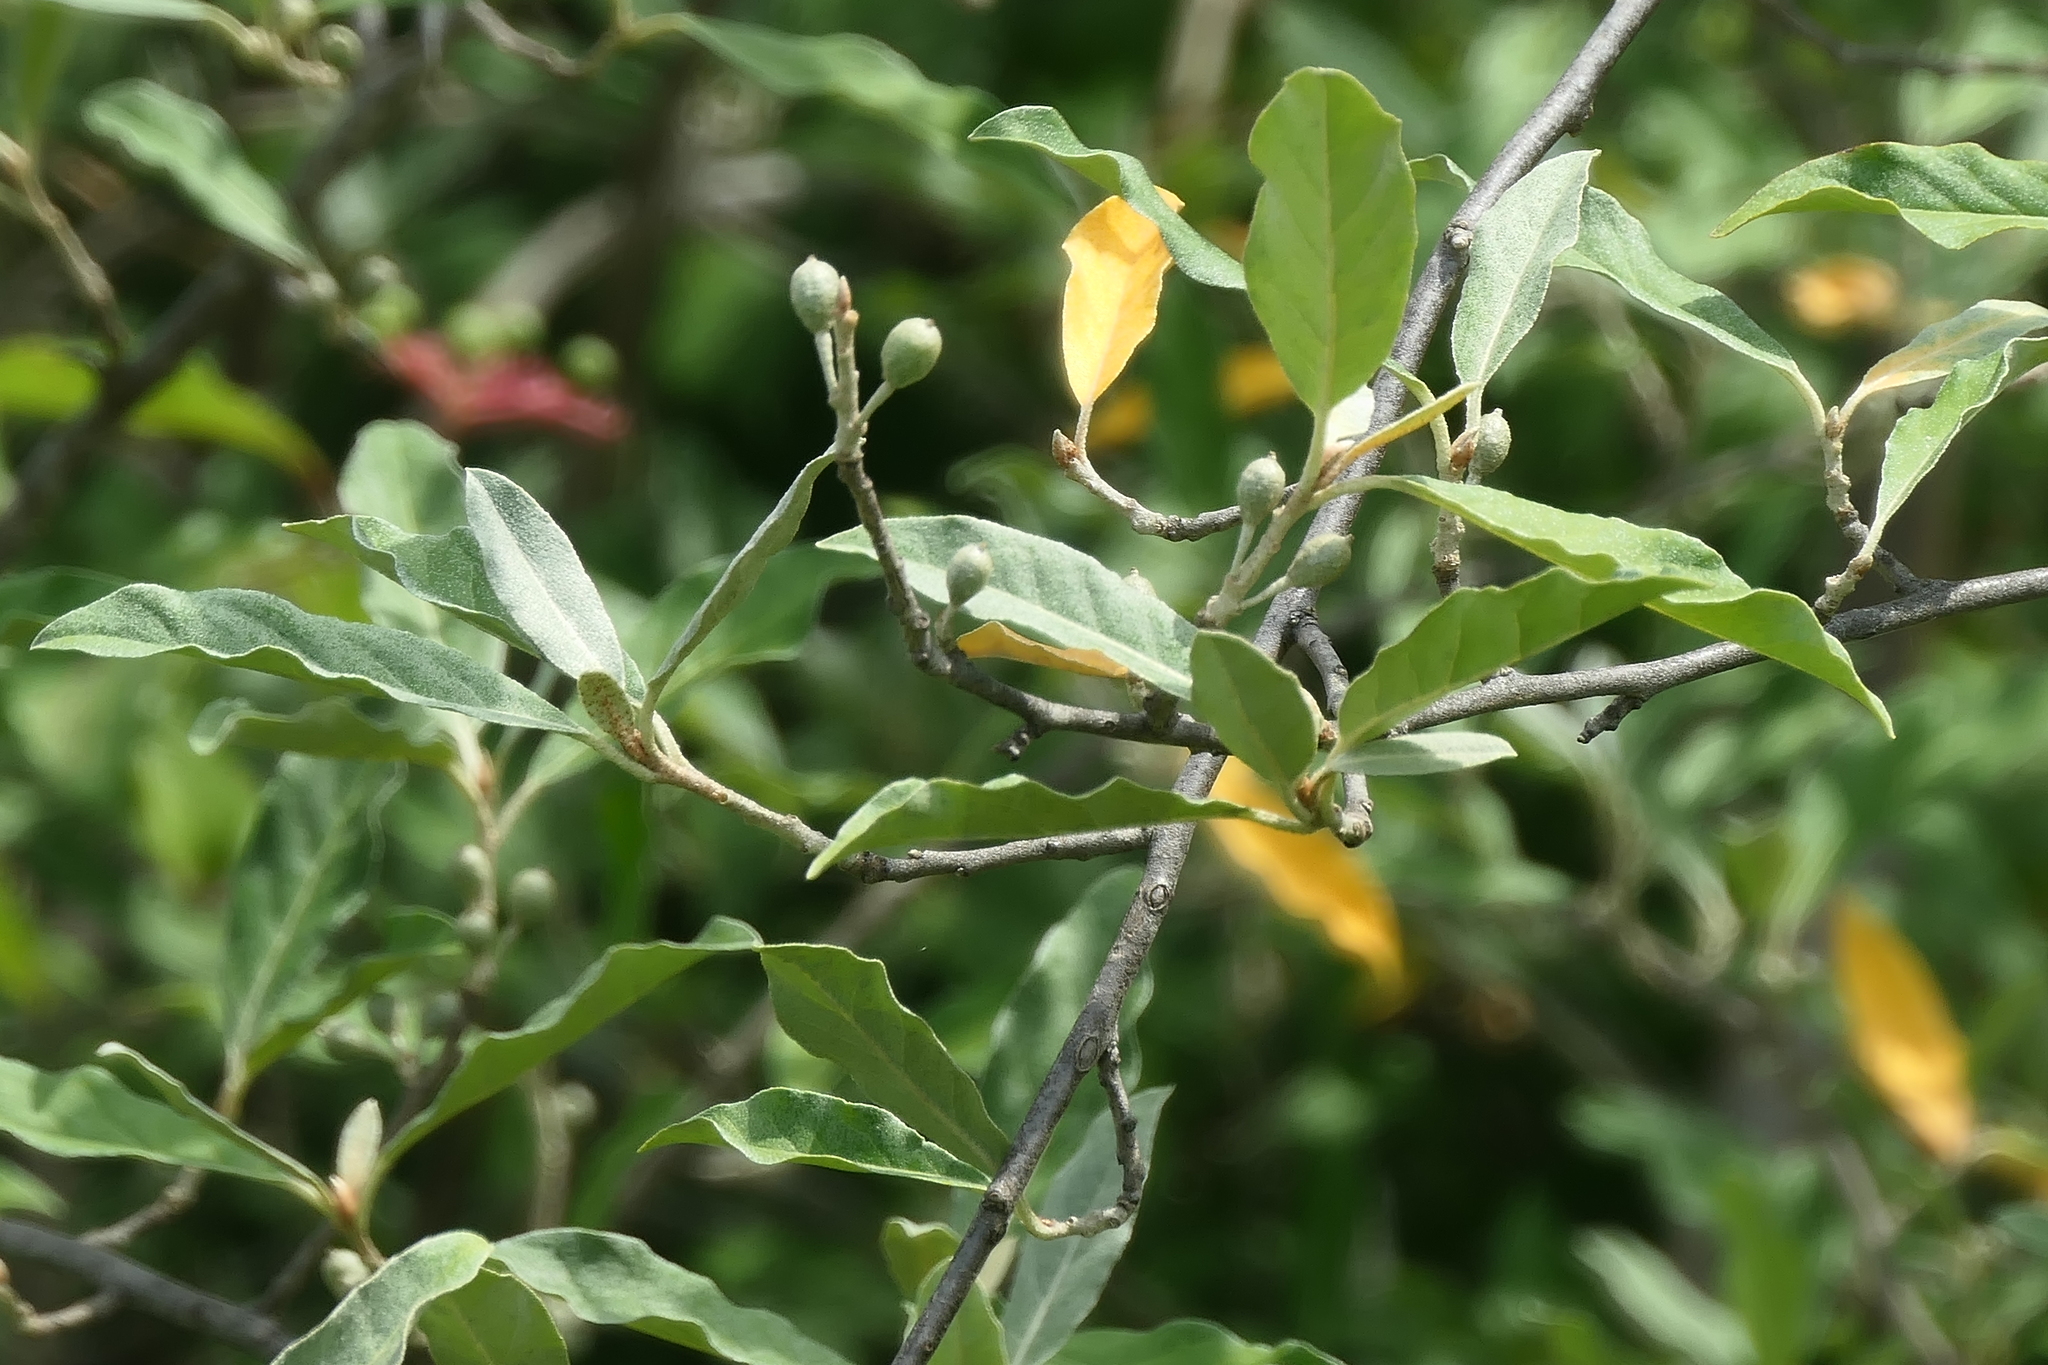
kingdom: Plantae
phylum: Tracheophyta
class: Magnoliopsida
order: Rosales
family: Elaeagnaceae
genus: Elaeagnus
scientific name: Elaeagnus umbellata
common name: Autumn olive
